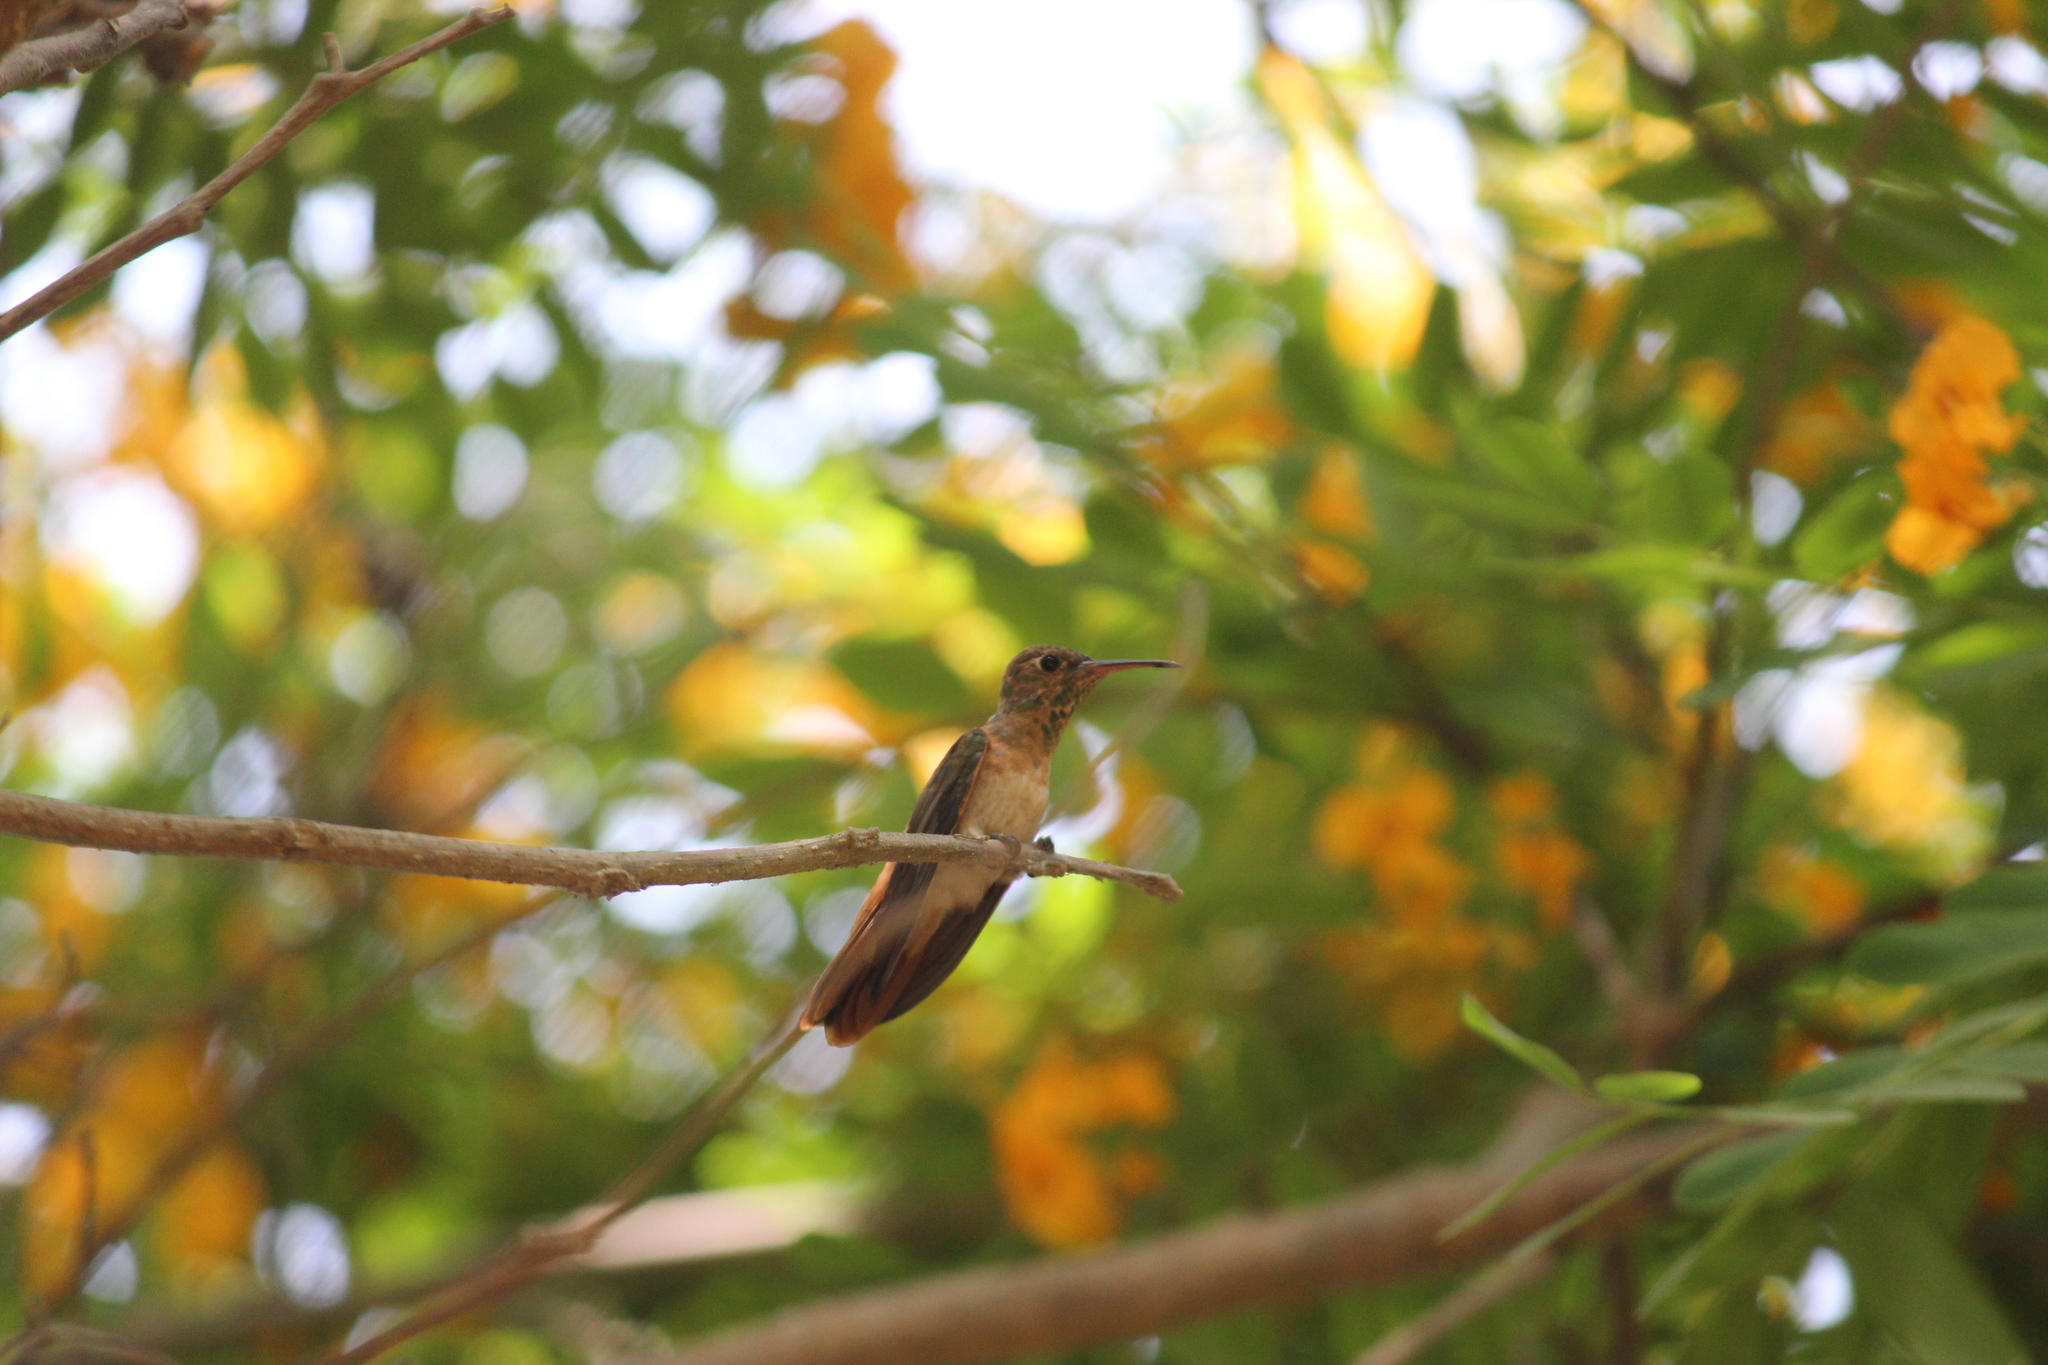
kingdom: Animalia
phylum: Chordata
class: Aves
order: Apodiformes
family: Trochilidae
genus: Amazilis
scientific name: Amazilis amazilia
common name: Amazilia hummingbird
